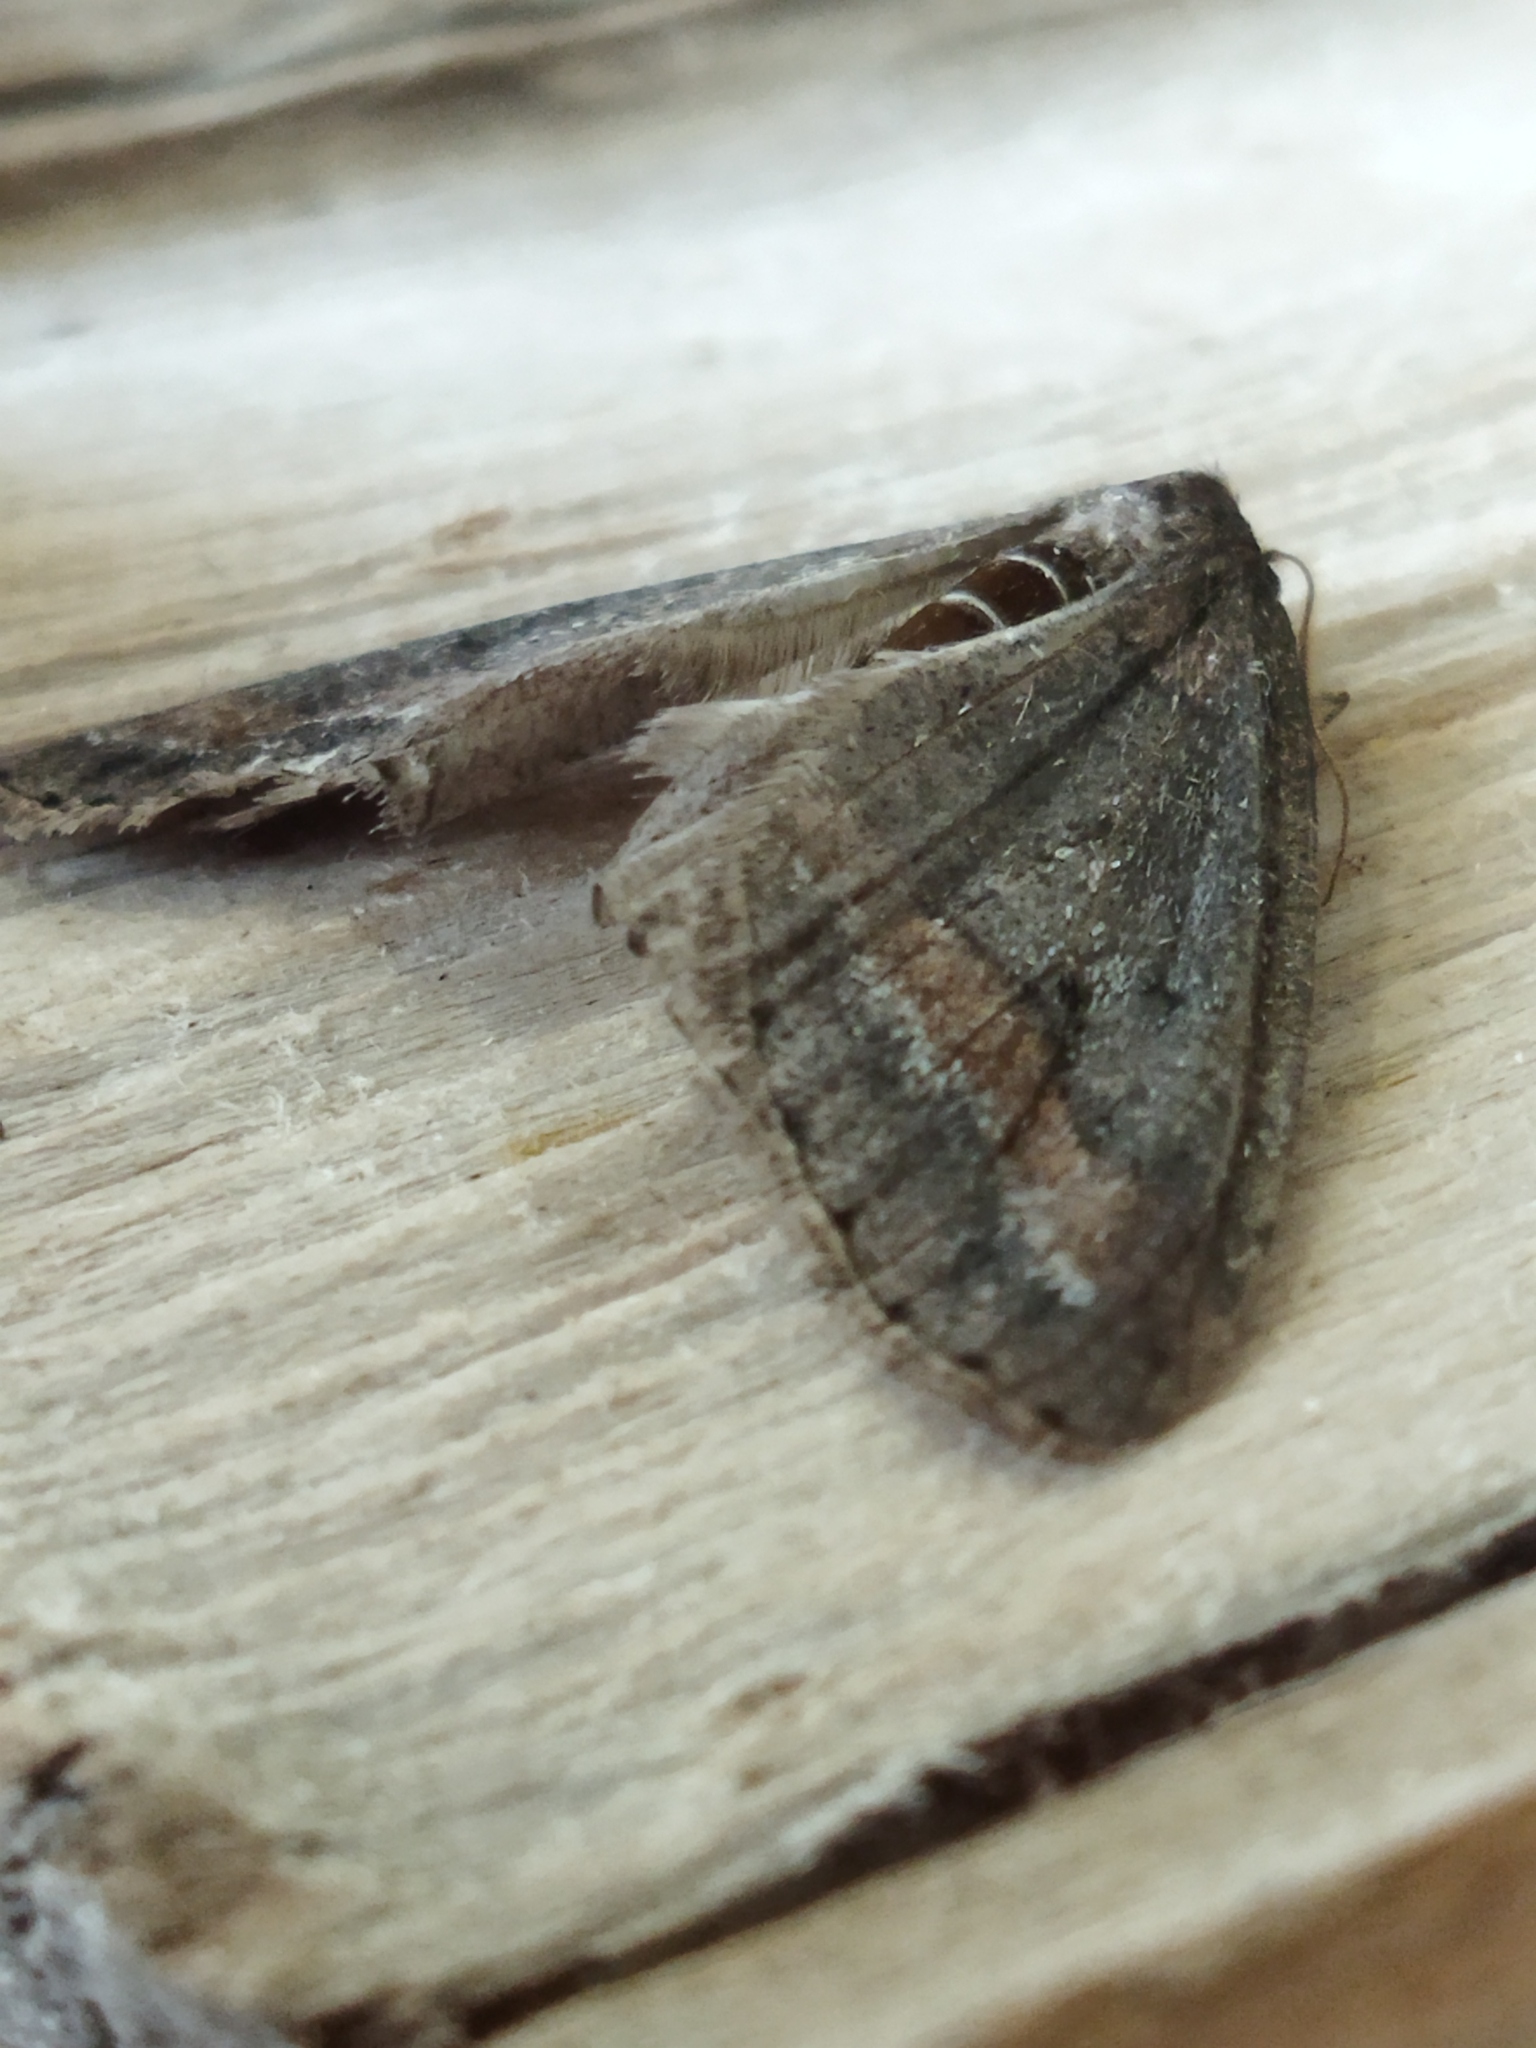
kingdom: Animalia
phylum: Arthropoda
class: Insecta
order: Lepidoptera
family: Geometridae
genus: Erannis
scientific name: Erannis declinans
